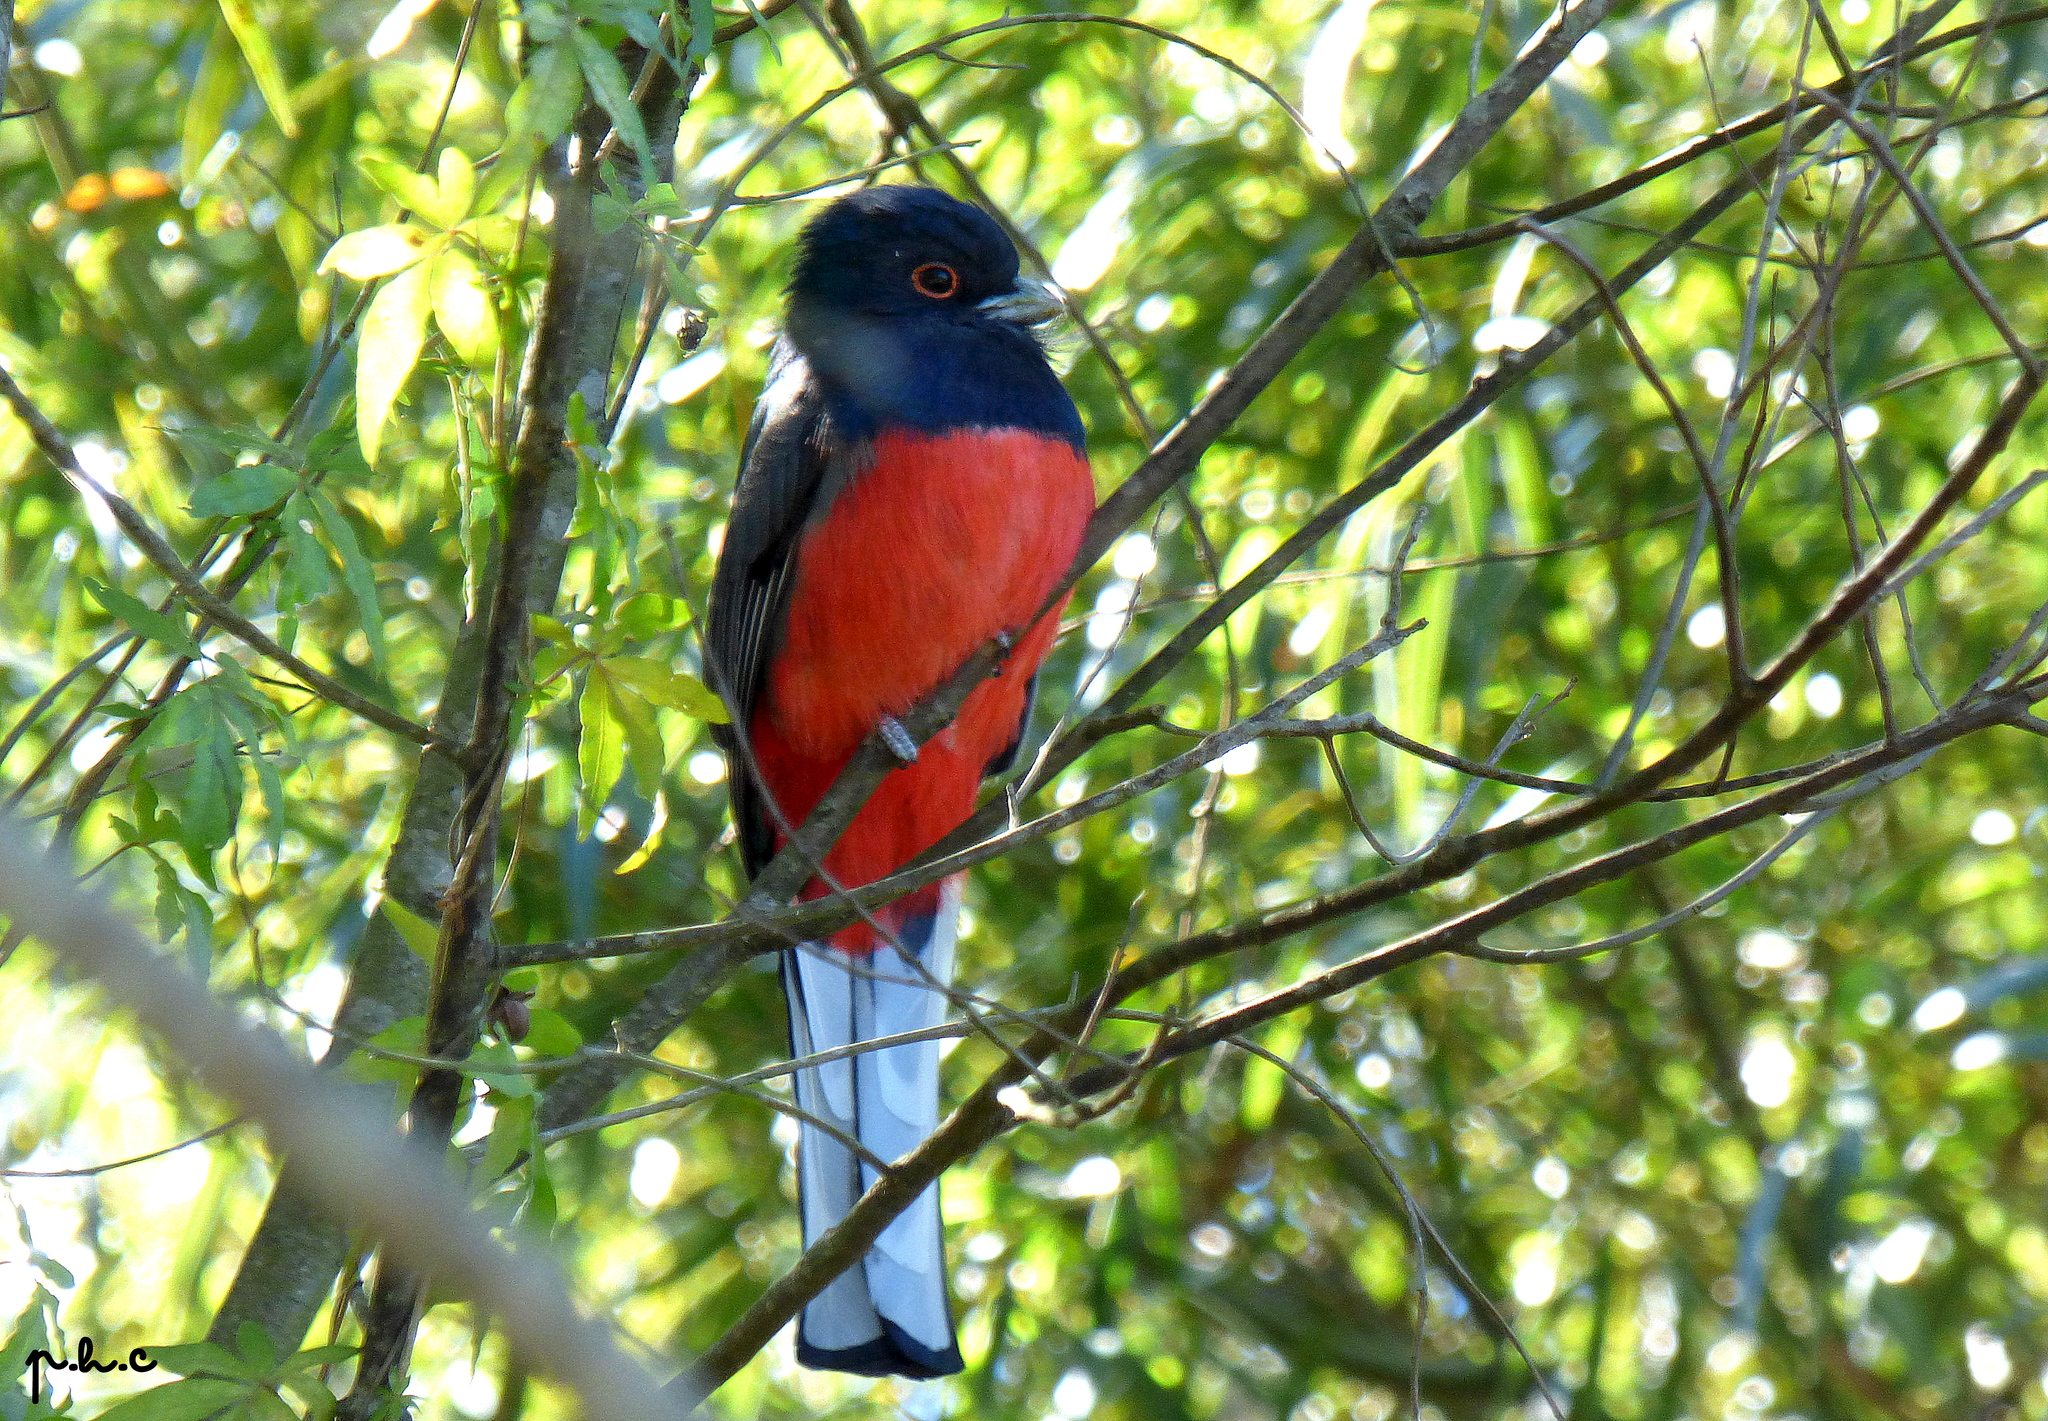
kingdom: Animalia
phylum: Chordata
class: Aves
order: Trogoniformes
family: Trogonidae
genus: Trogon
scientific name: Trogon surrucura
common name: Surucua trogon
